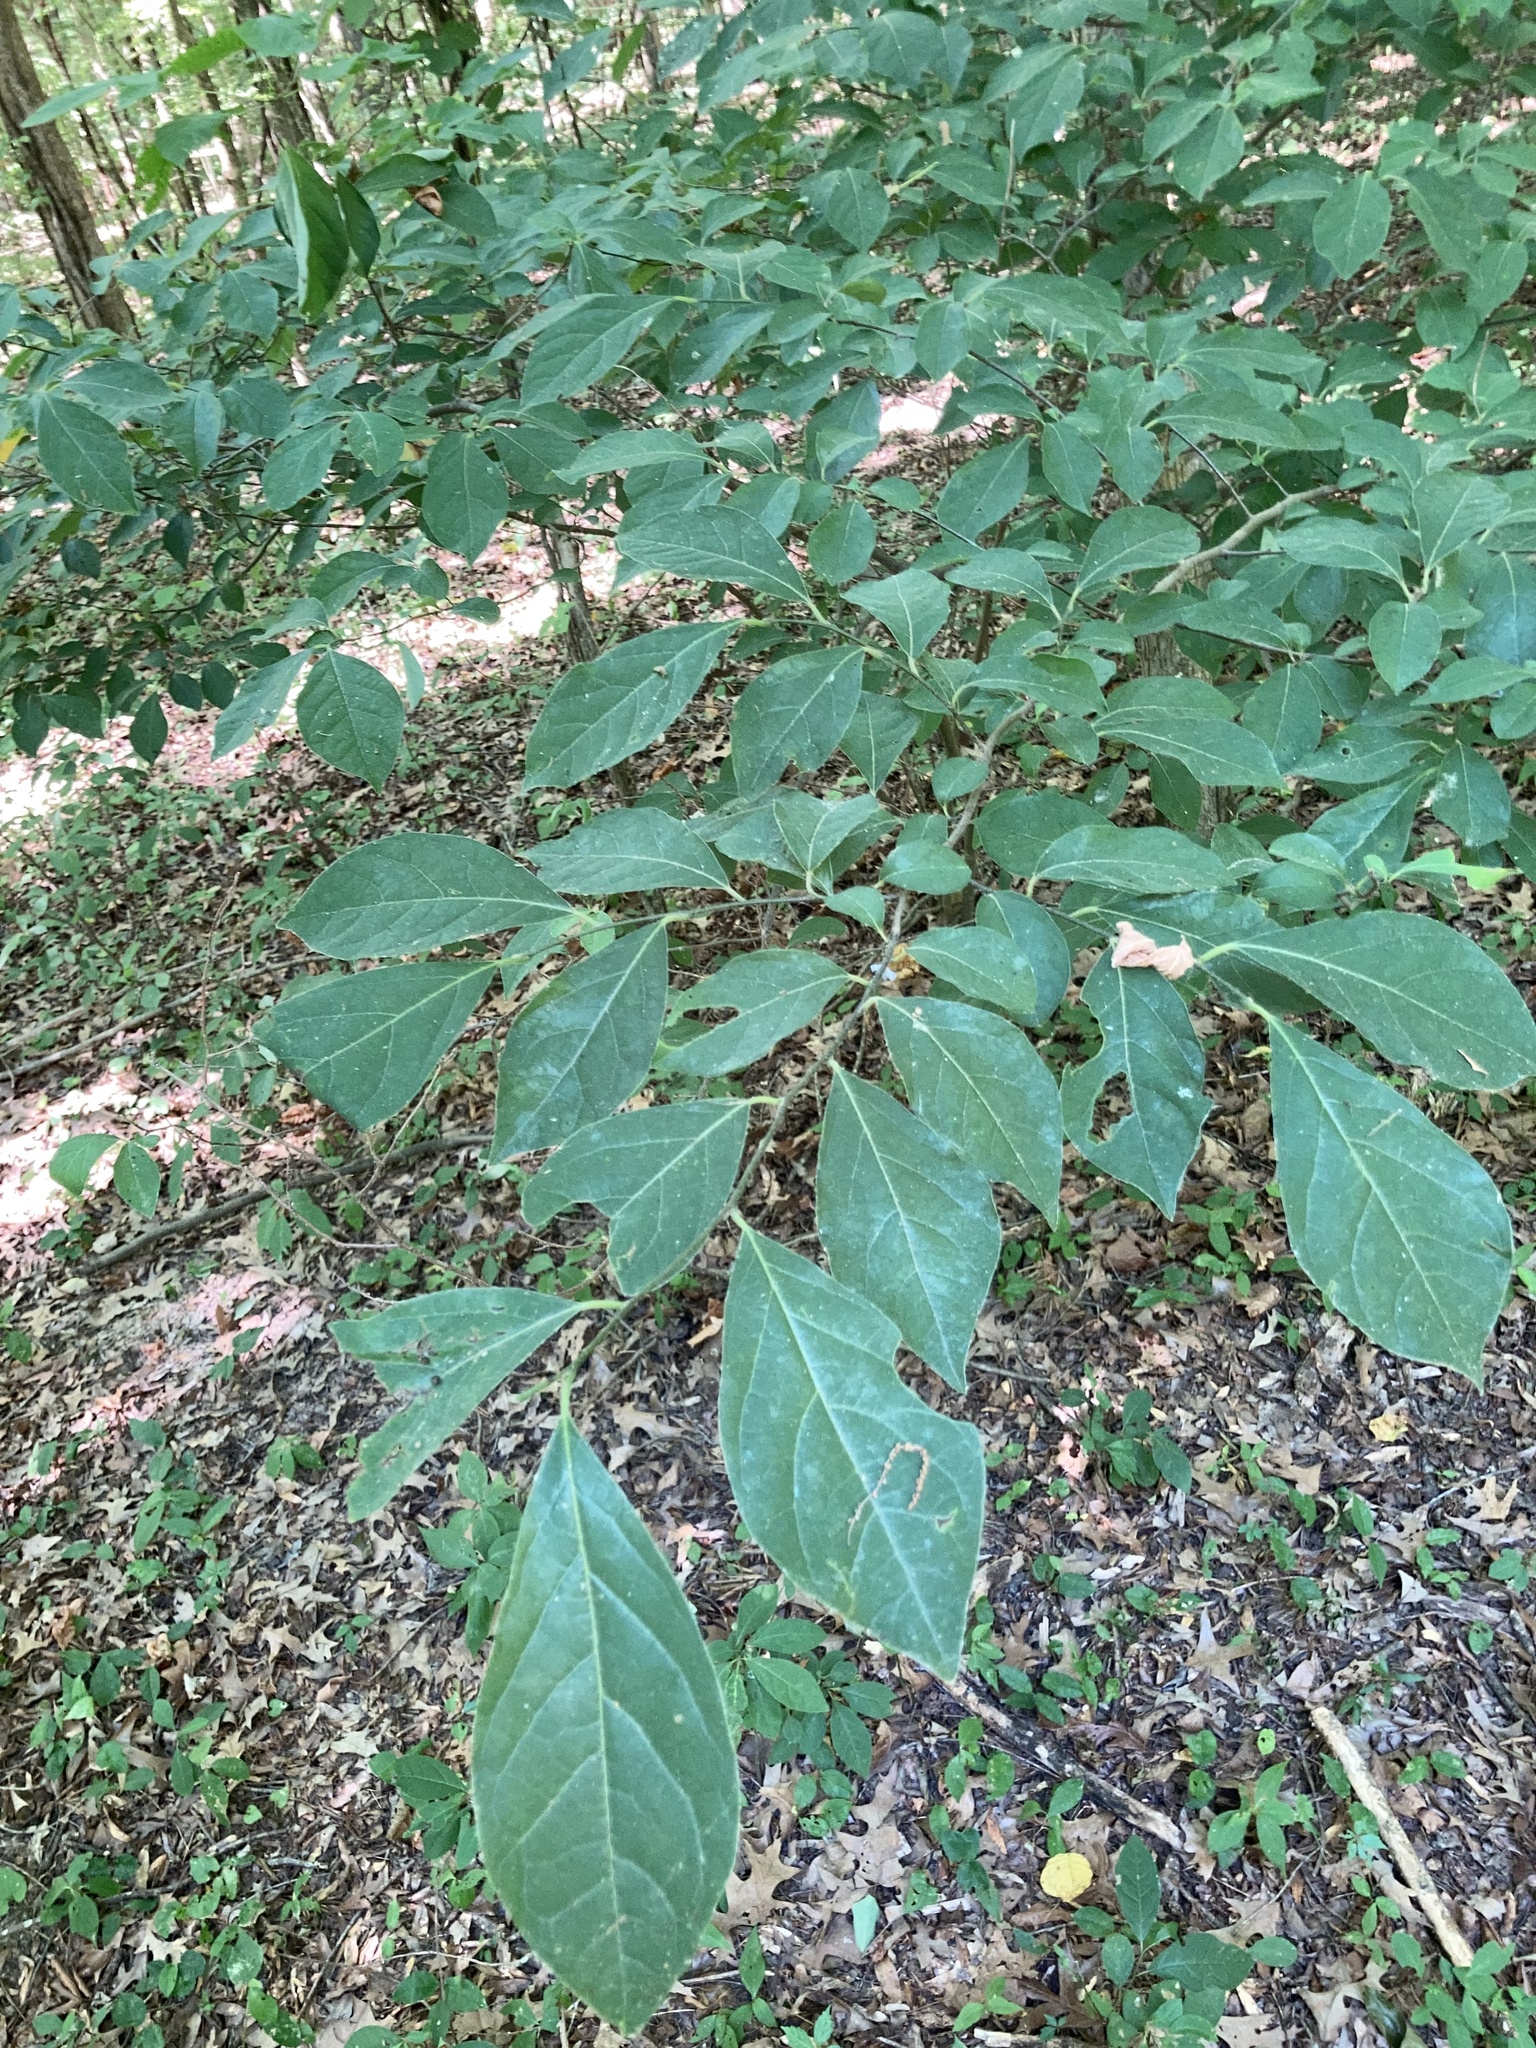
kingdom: Plantae
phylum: Tracheophyta
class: Magnoliopsida
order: Laurales
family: Lauraceae
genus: Lindera
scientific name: Lindera benzoin
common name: Spicebush
